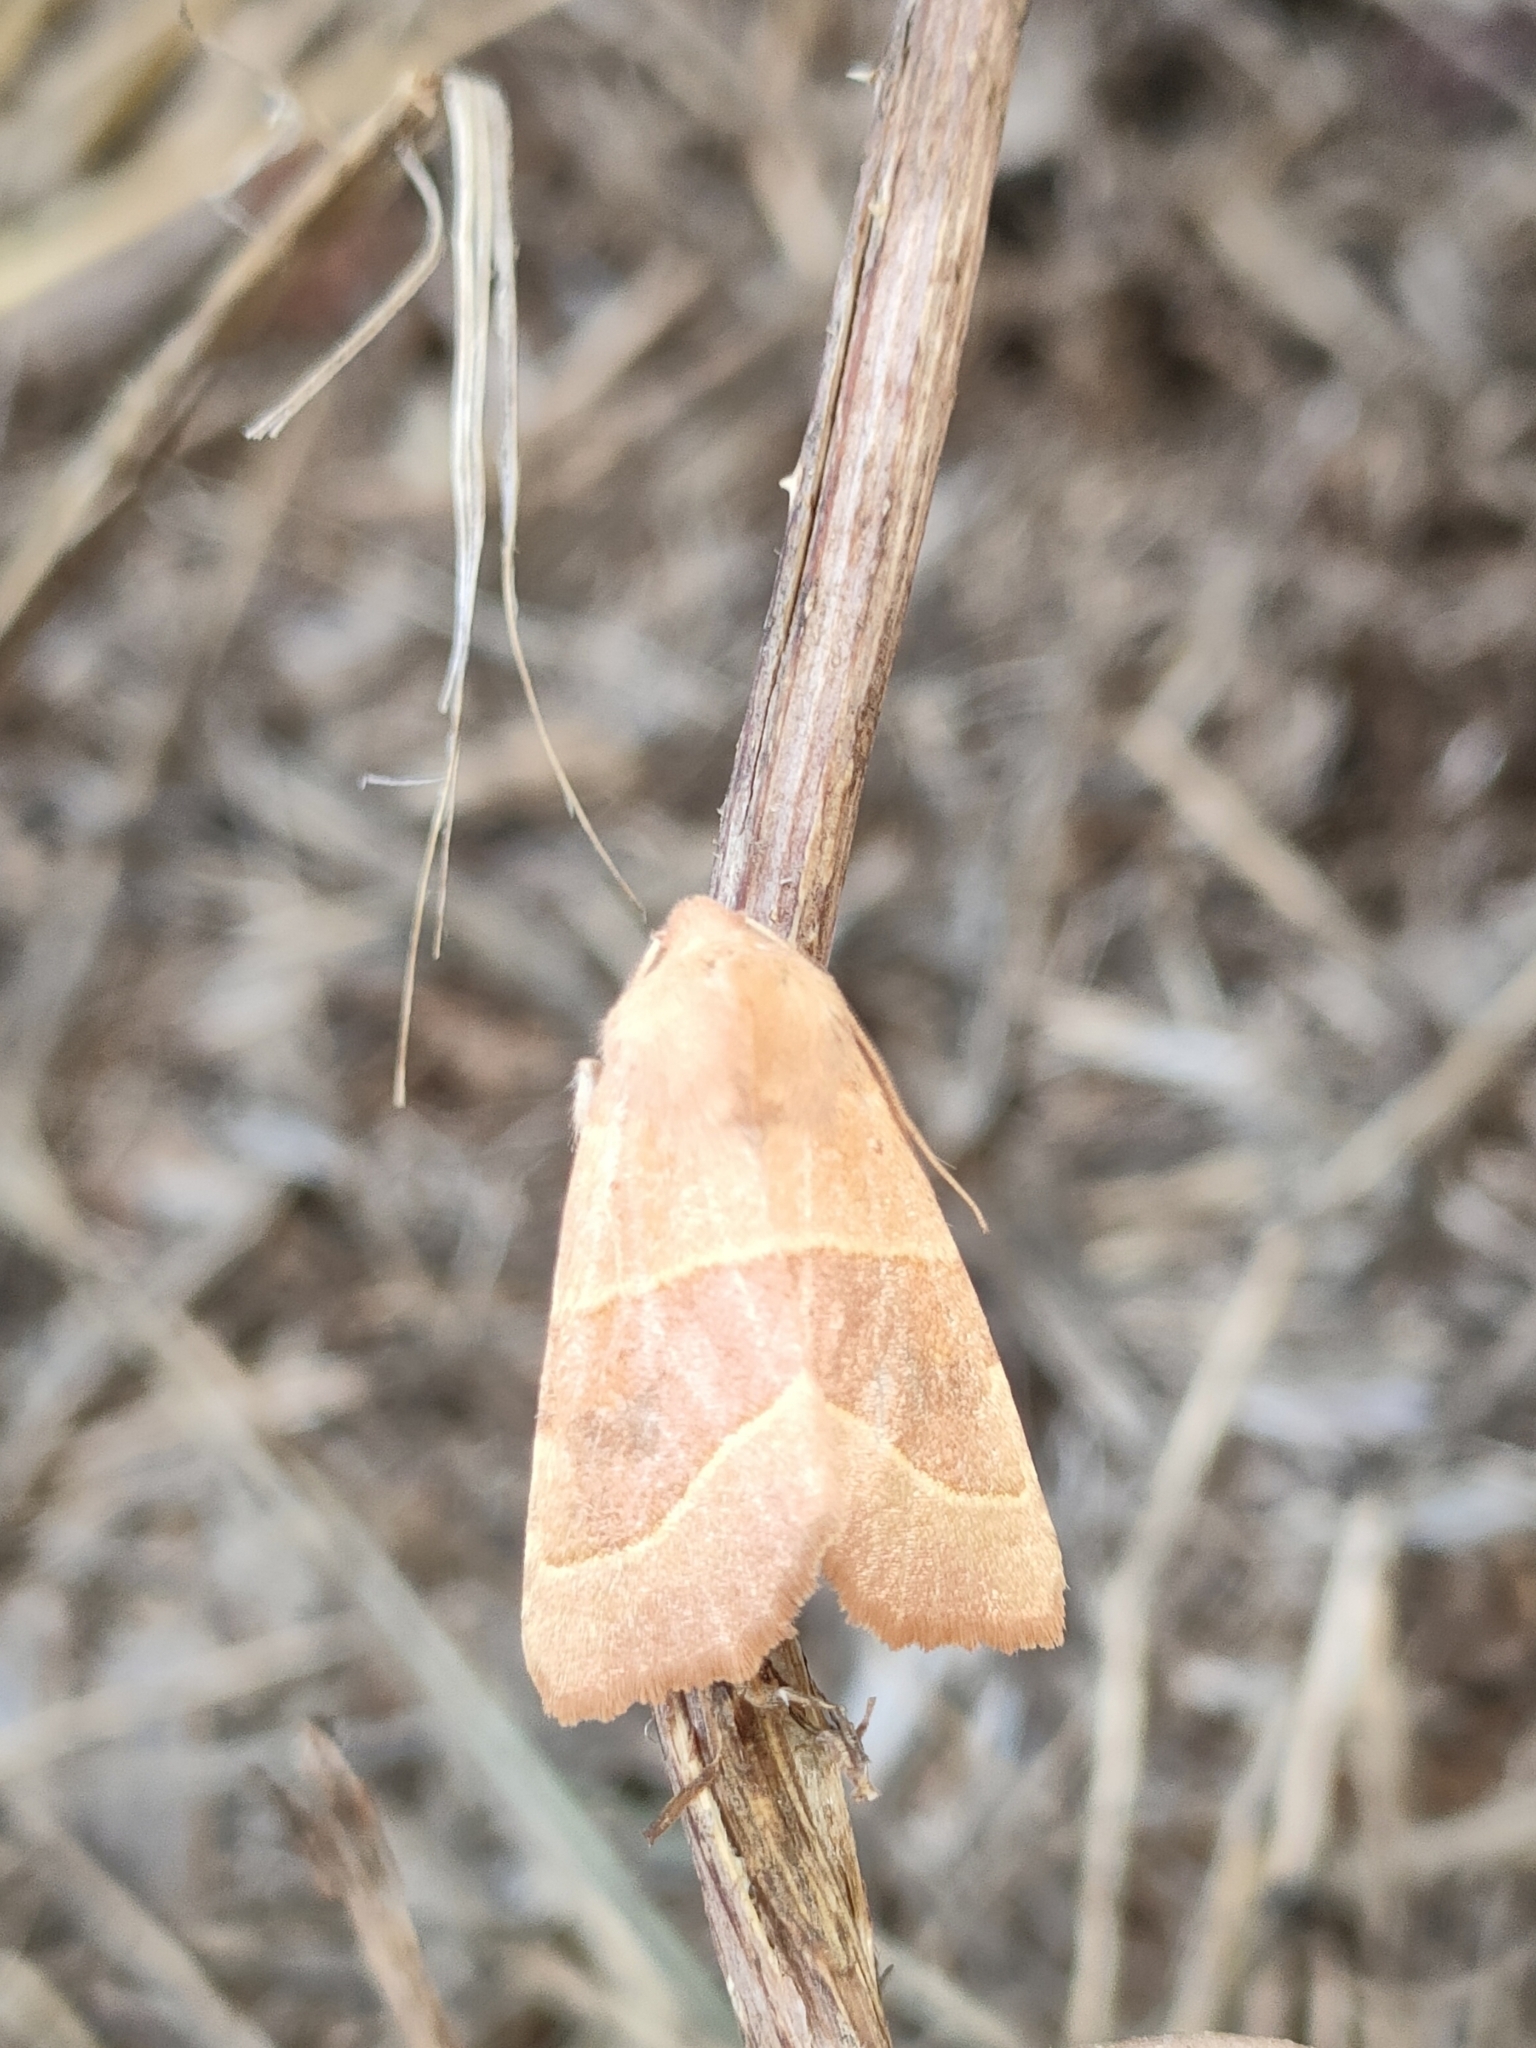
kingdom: Animalia
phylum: Arthropoda
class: Insecta
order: Lepidoptera
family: Noctuidae
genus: Atethmia
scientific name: Atethmia centrago
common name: Centre-barred sallow
